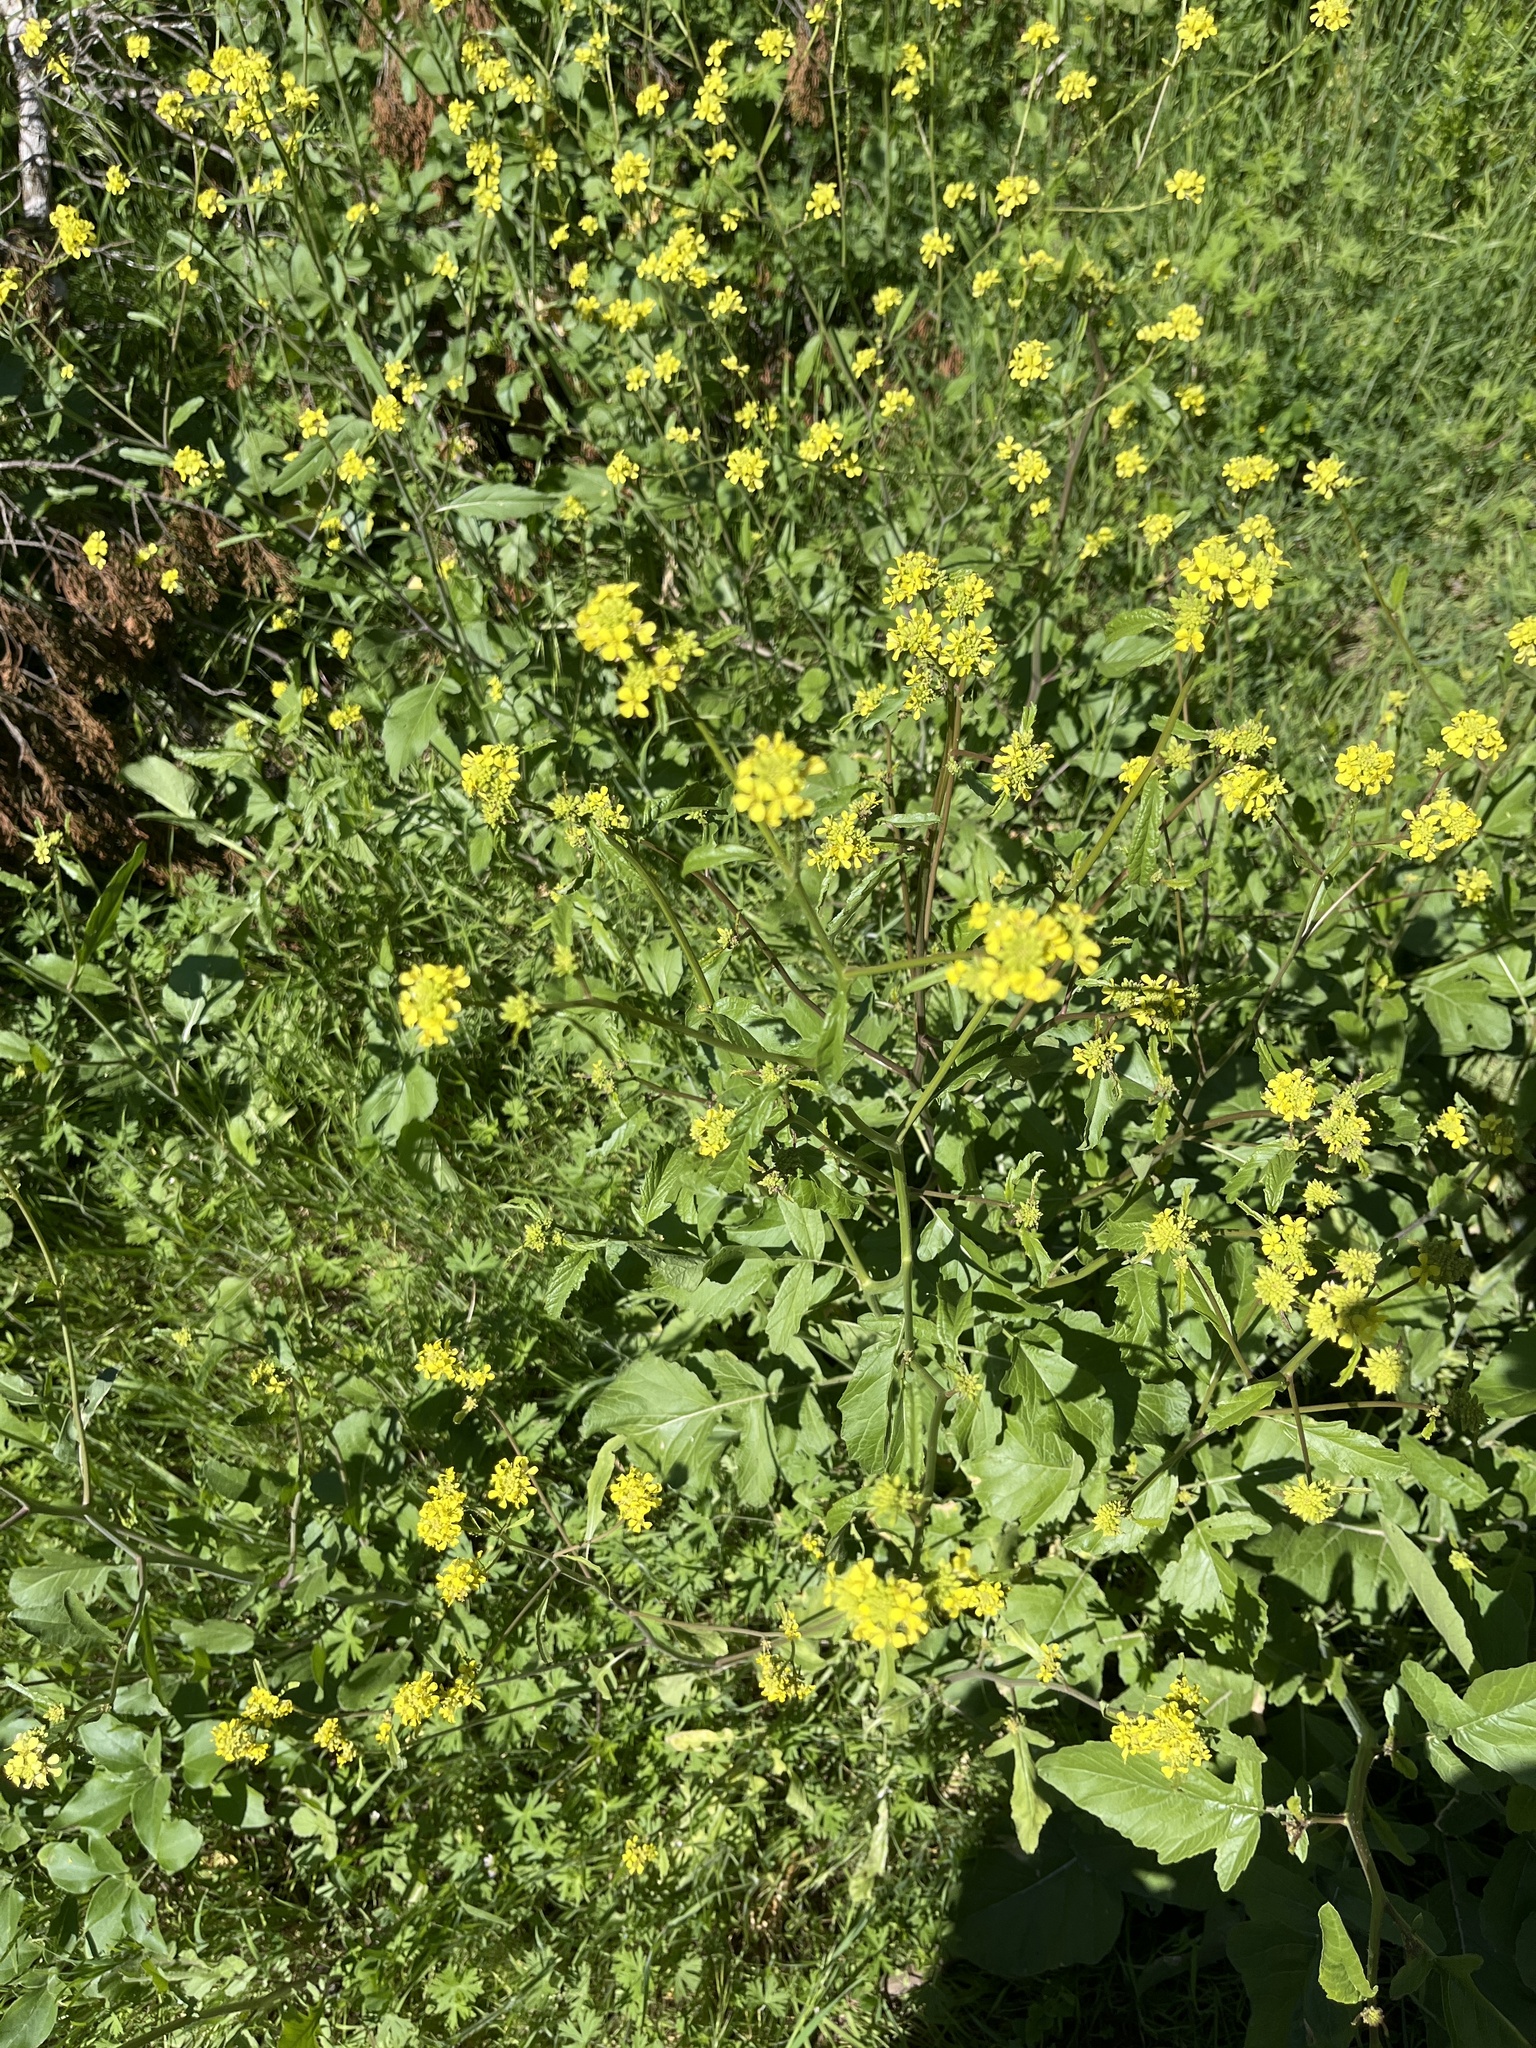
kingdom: Plantae
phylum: Tracheophyta
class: Magnoliopsida
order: Brassicales
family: Brassicaceae
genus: Rapistrum
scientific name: Rapistrum rugosum
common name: Annual bastardcabbage
